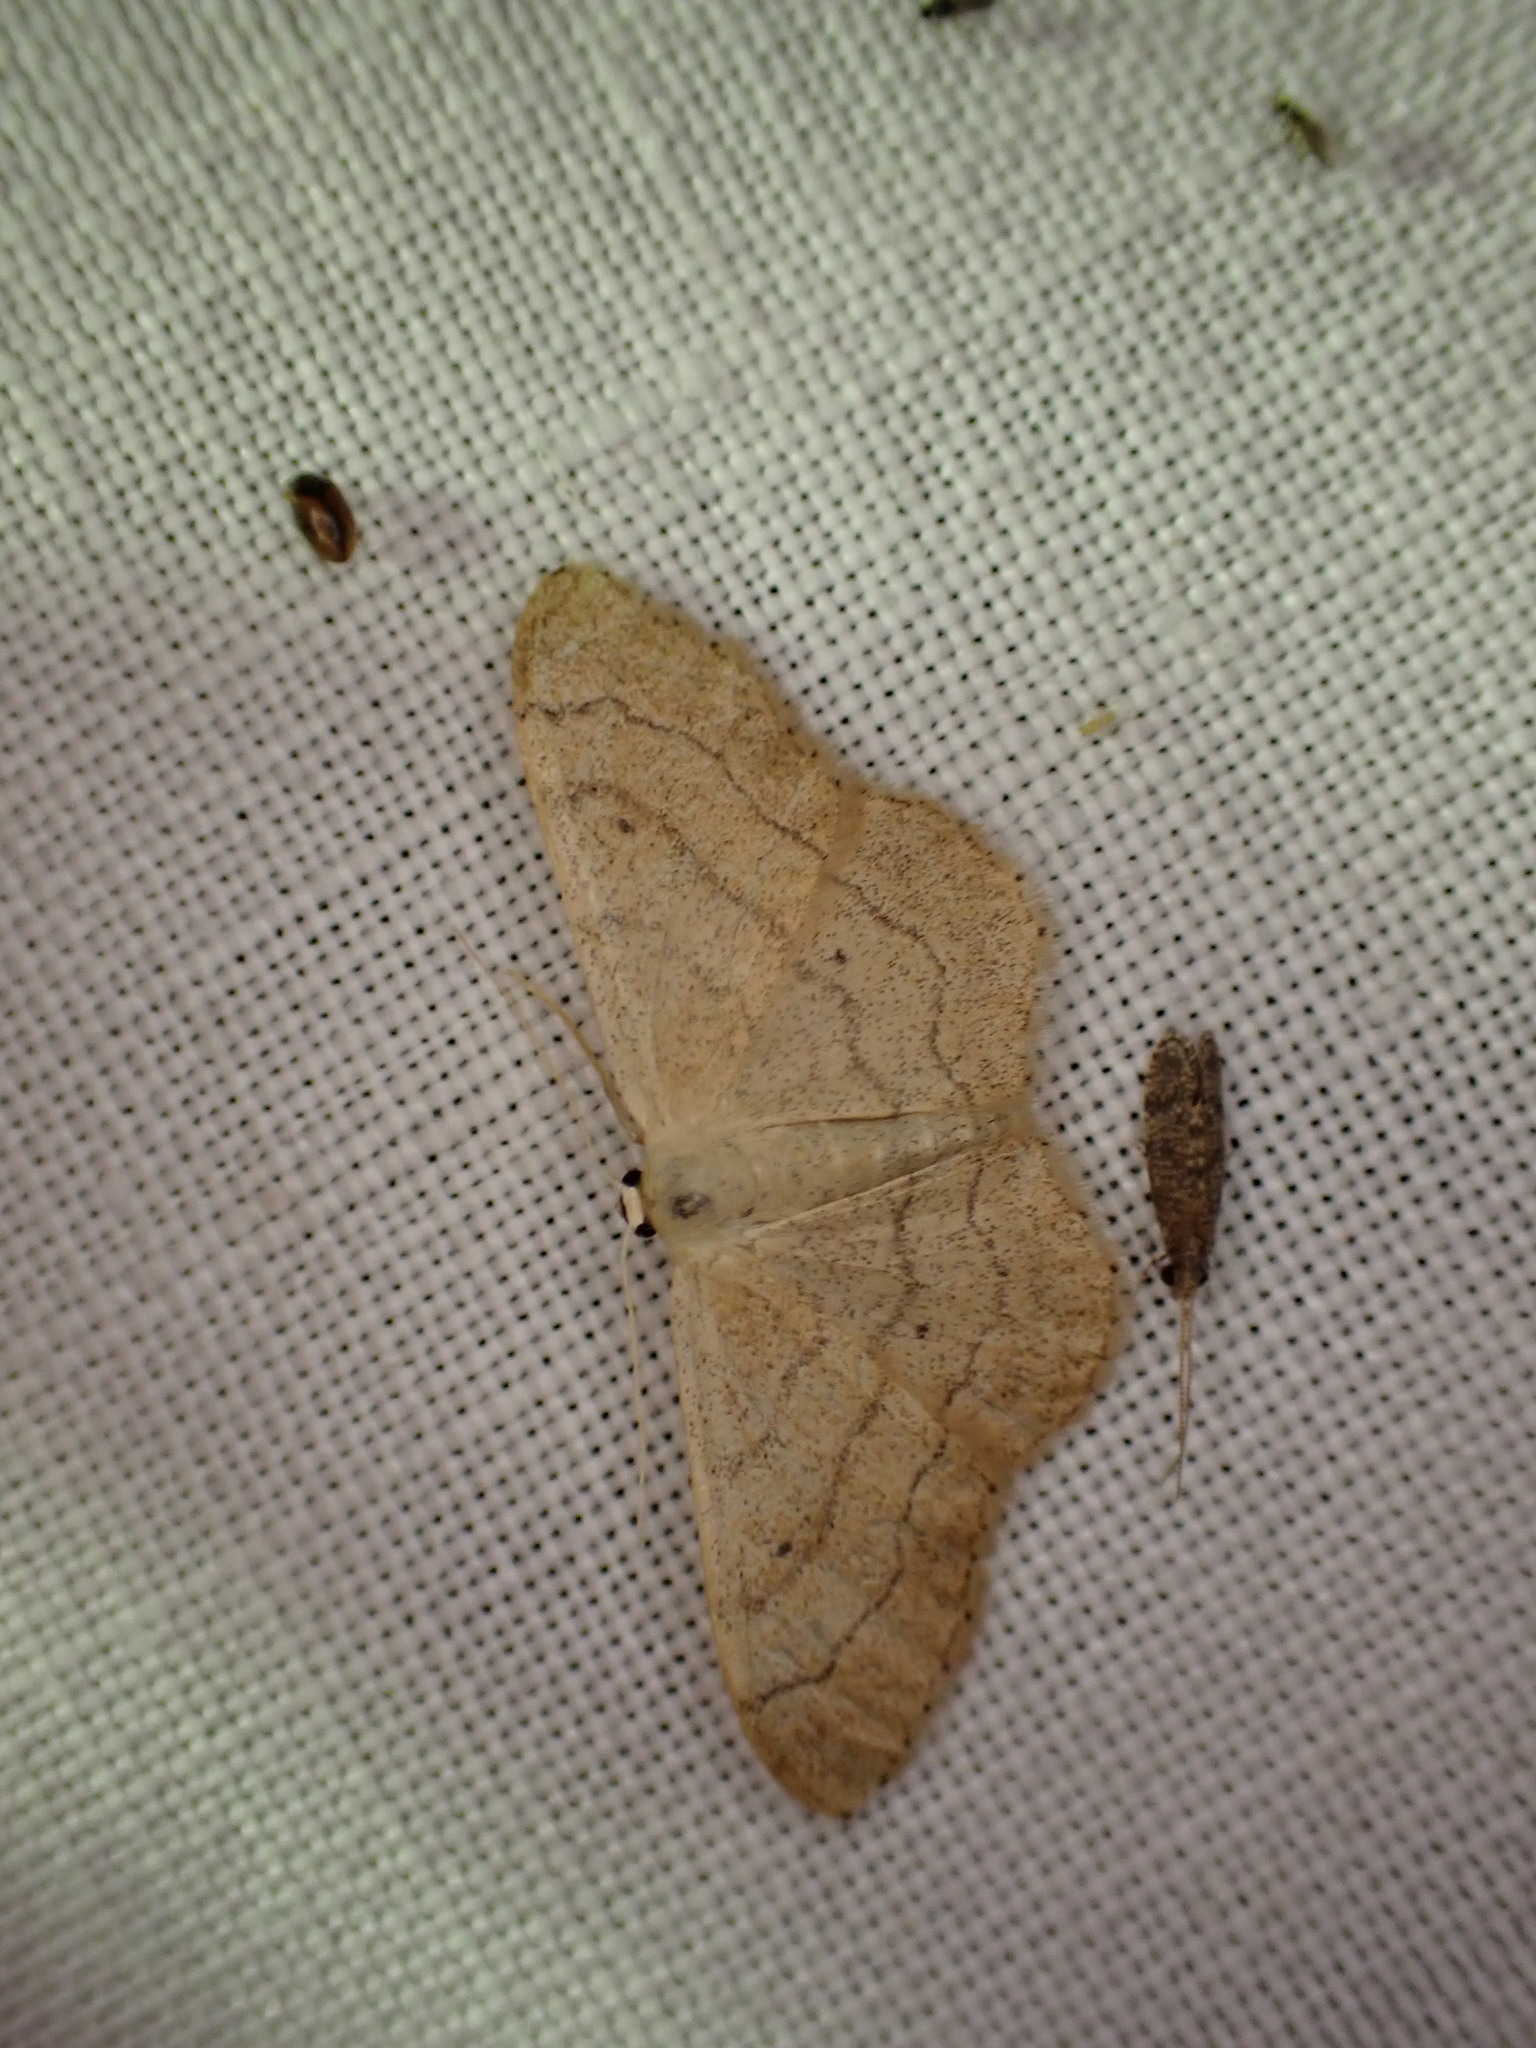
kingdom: Animalia
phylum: Arthropoda
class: Insecta
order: Lepidoptera
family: Geometridae
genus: Idaea
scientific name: Idaea aversata
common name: Riband wave
